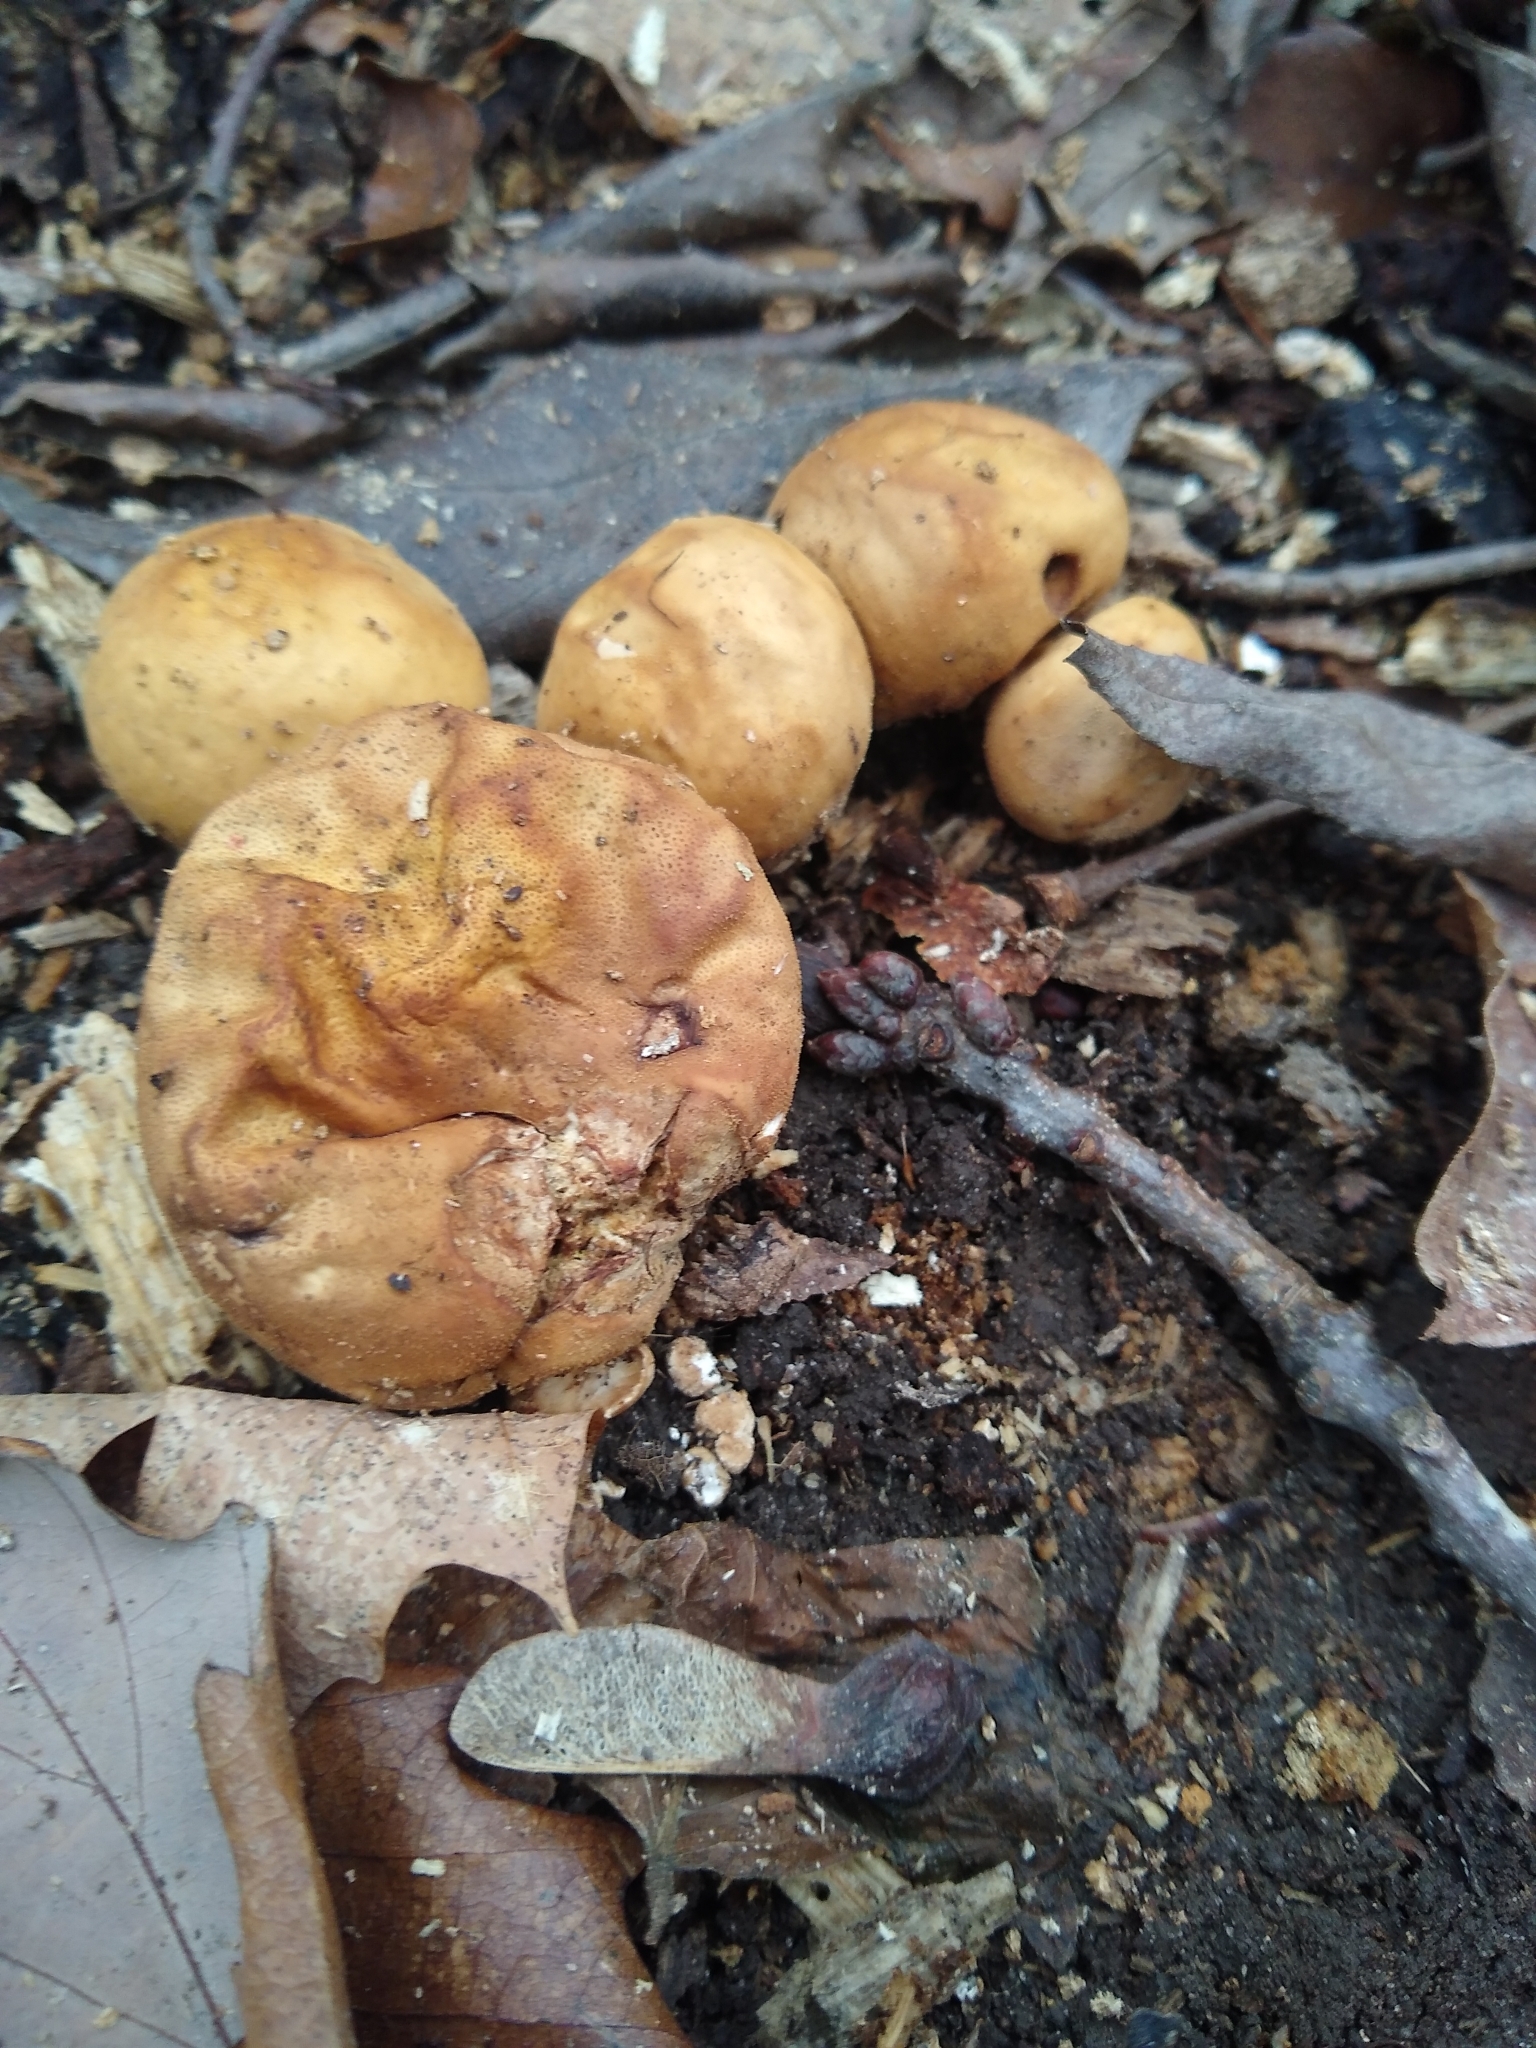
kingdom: Fungi
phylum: Basidiomycota
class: Agaricomycetes
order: Agaricales
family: Lycoperdaceae
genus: Apioperdon
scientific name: Apioperdon pyriforme
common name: Pear-shaped puffball
